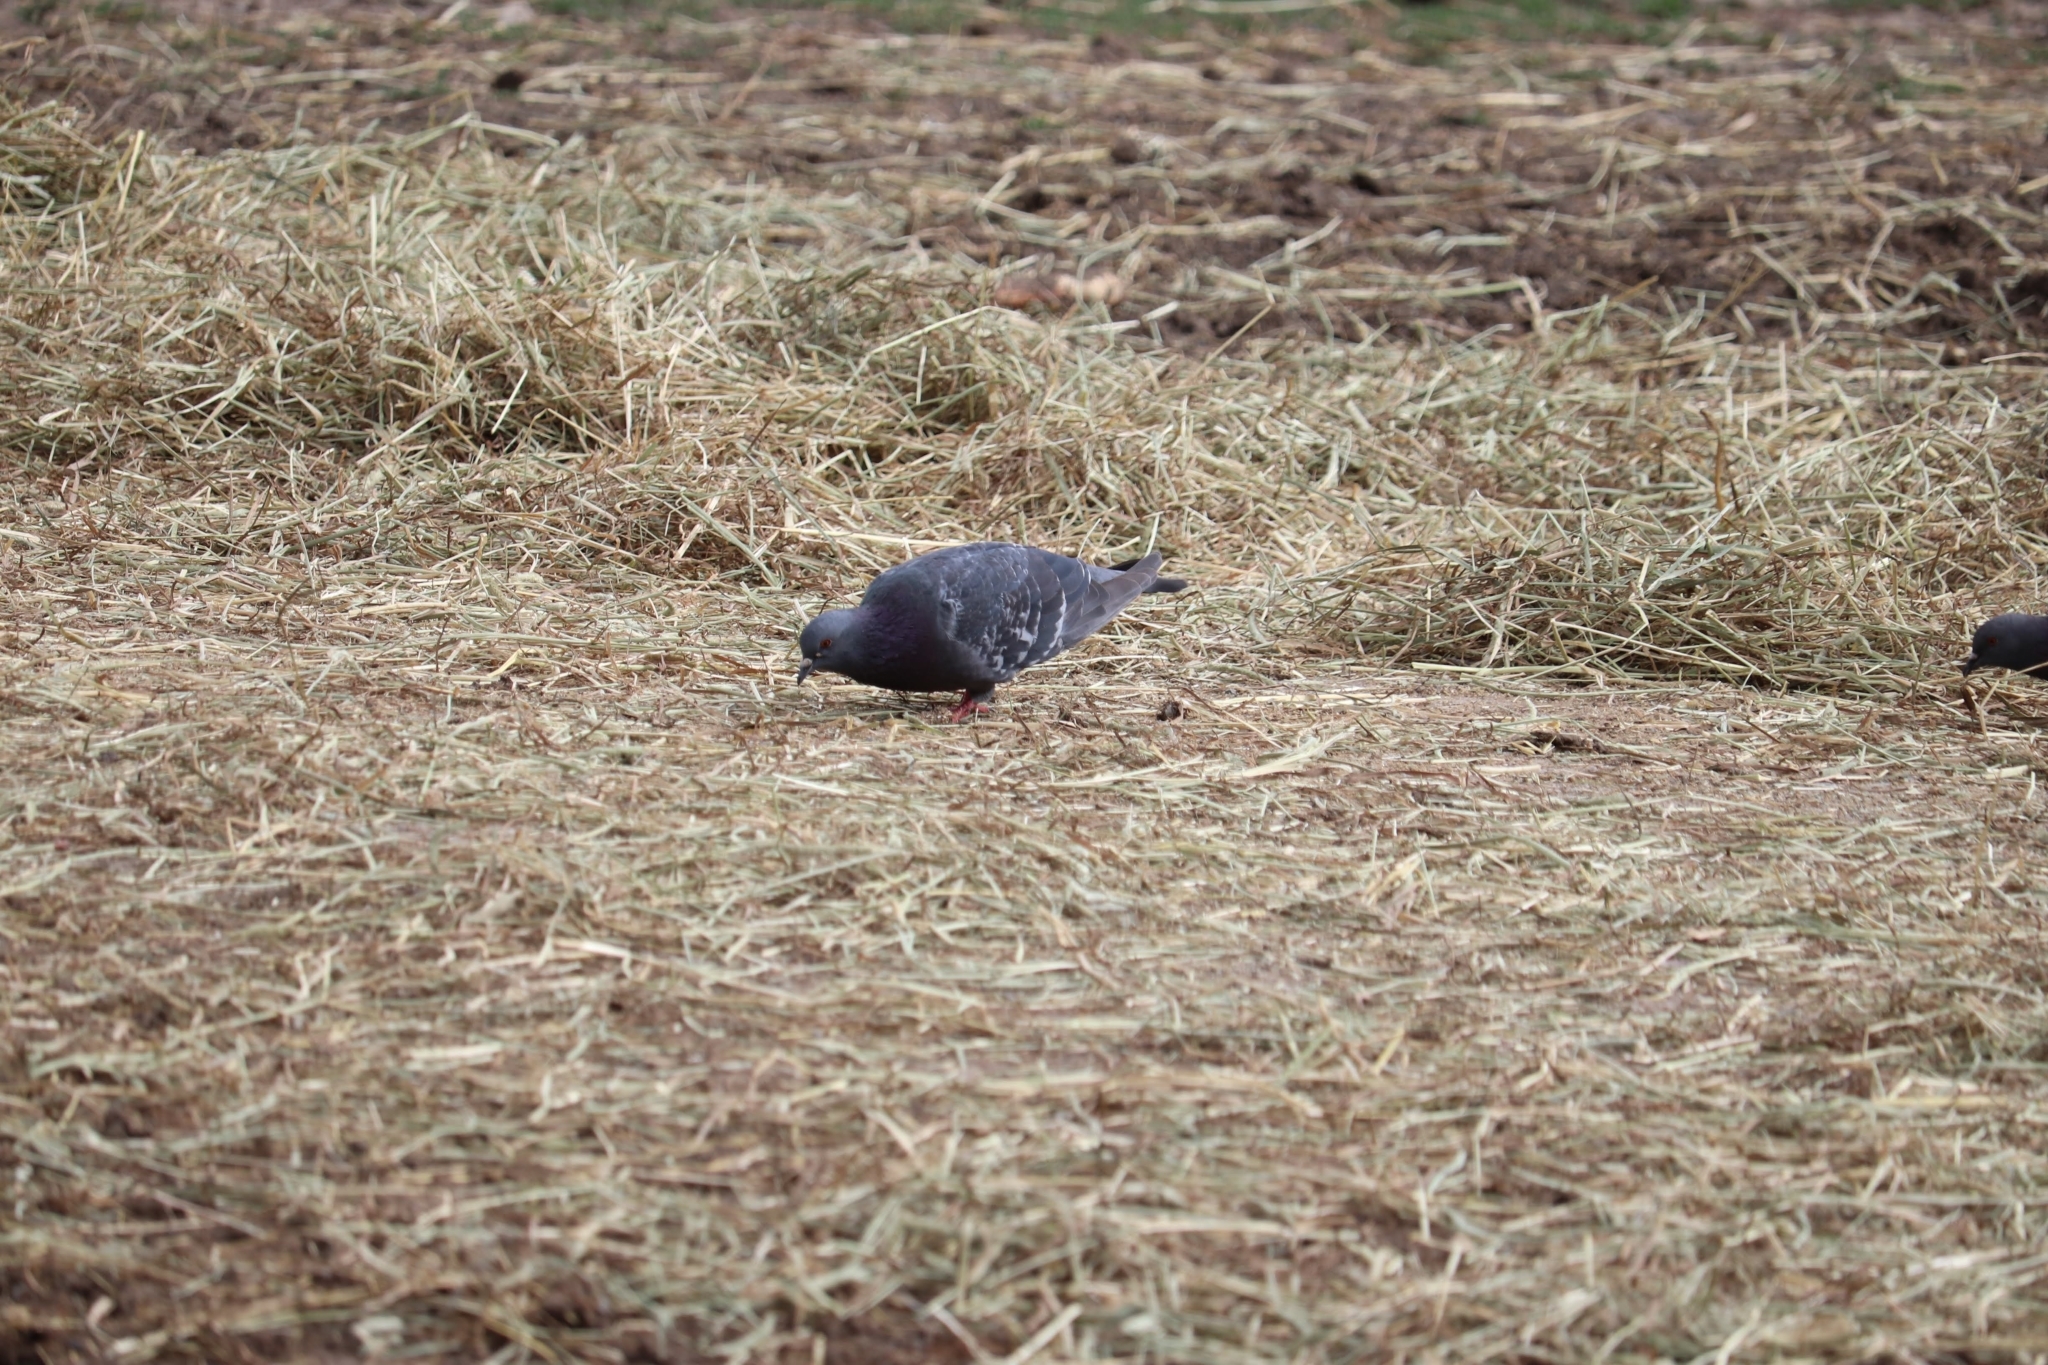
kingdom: Animalia
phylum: Chordata
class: Aves
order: Columbiformes
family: Columbidae
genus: Columba
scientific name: Columba livia
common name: Rock pigeon
